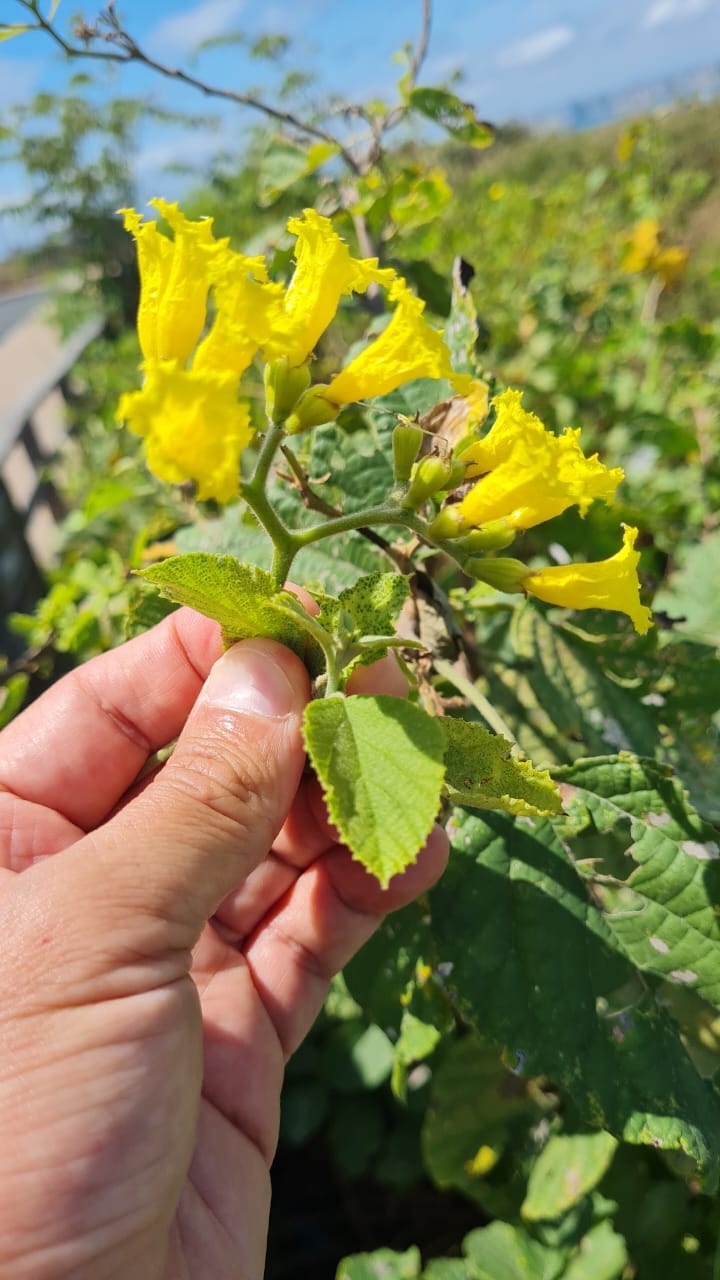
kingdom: Plantae
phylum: Tracheophyta
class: Magnoliopsida
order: Boraginales
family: Cordiaceae
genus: Cordia
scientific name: Cordia lutea
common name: Yellow geiger
